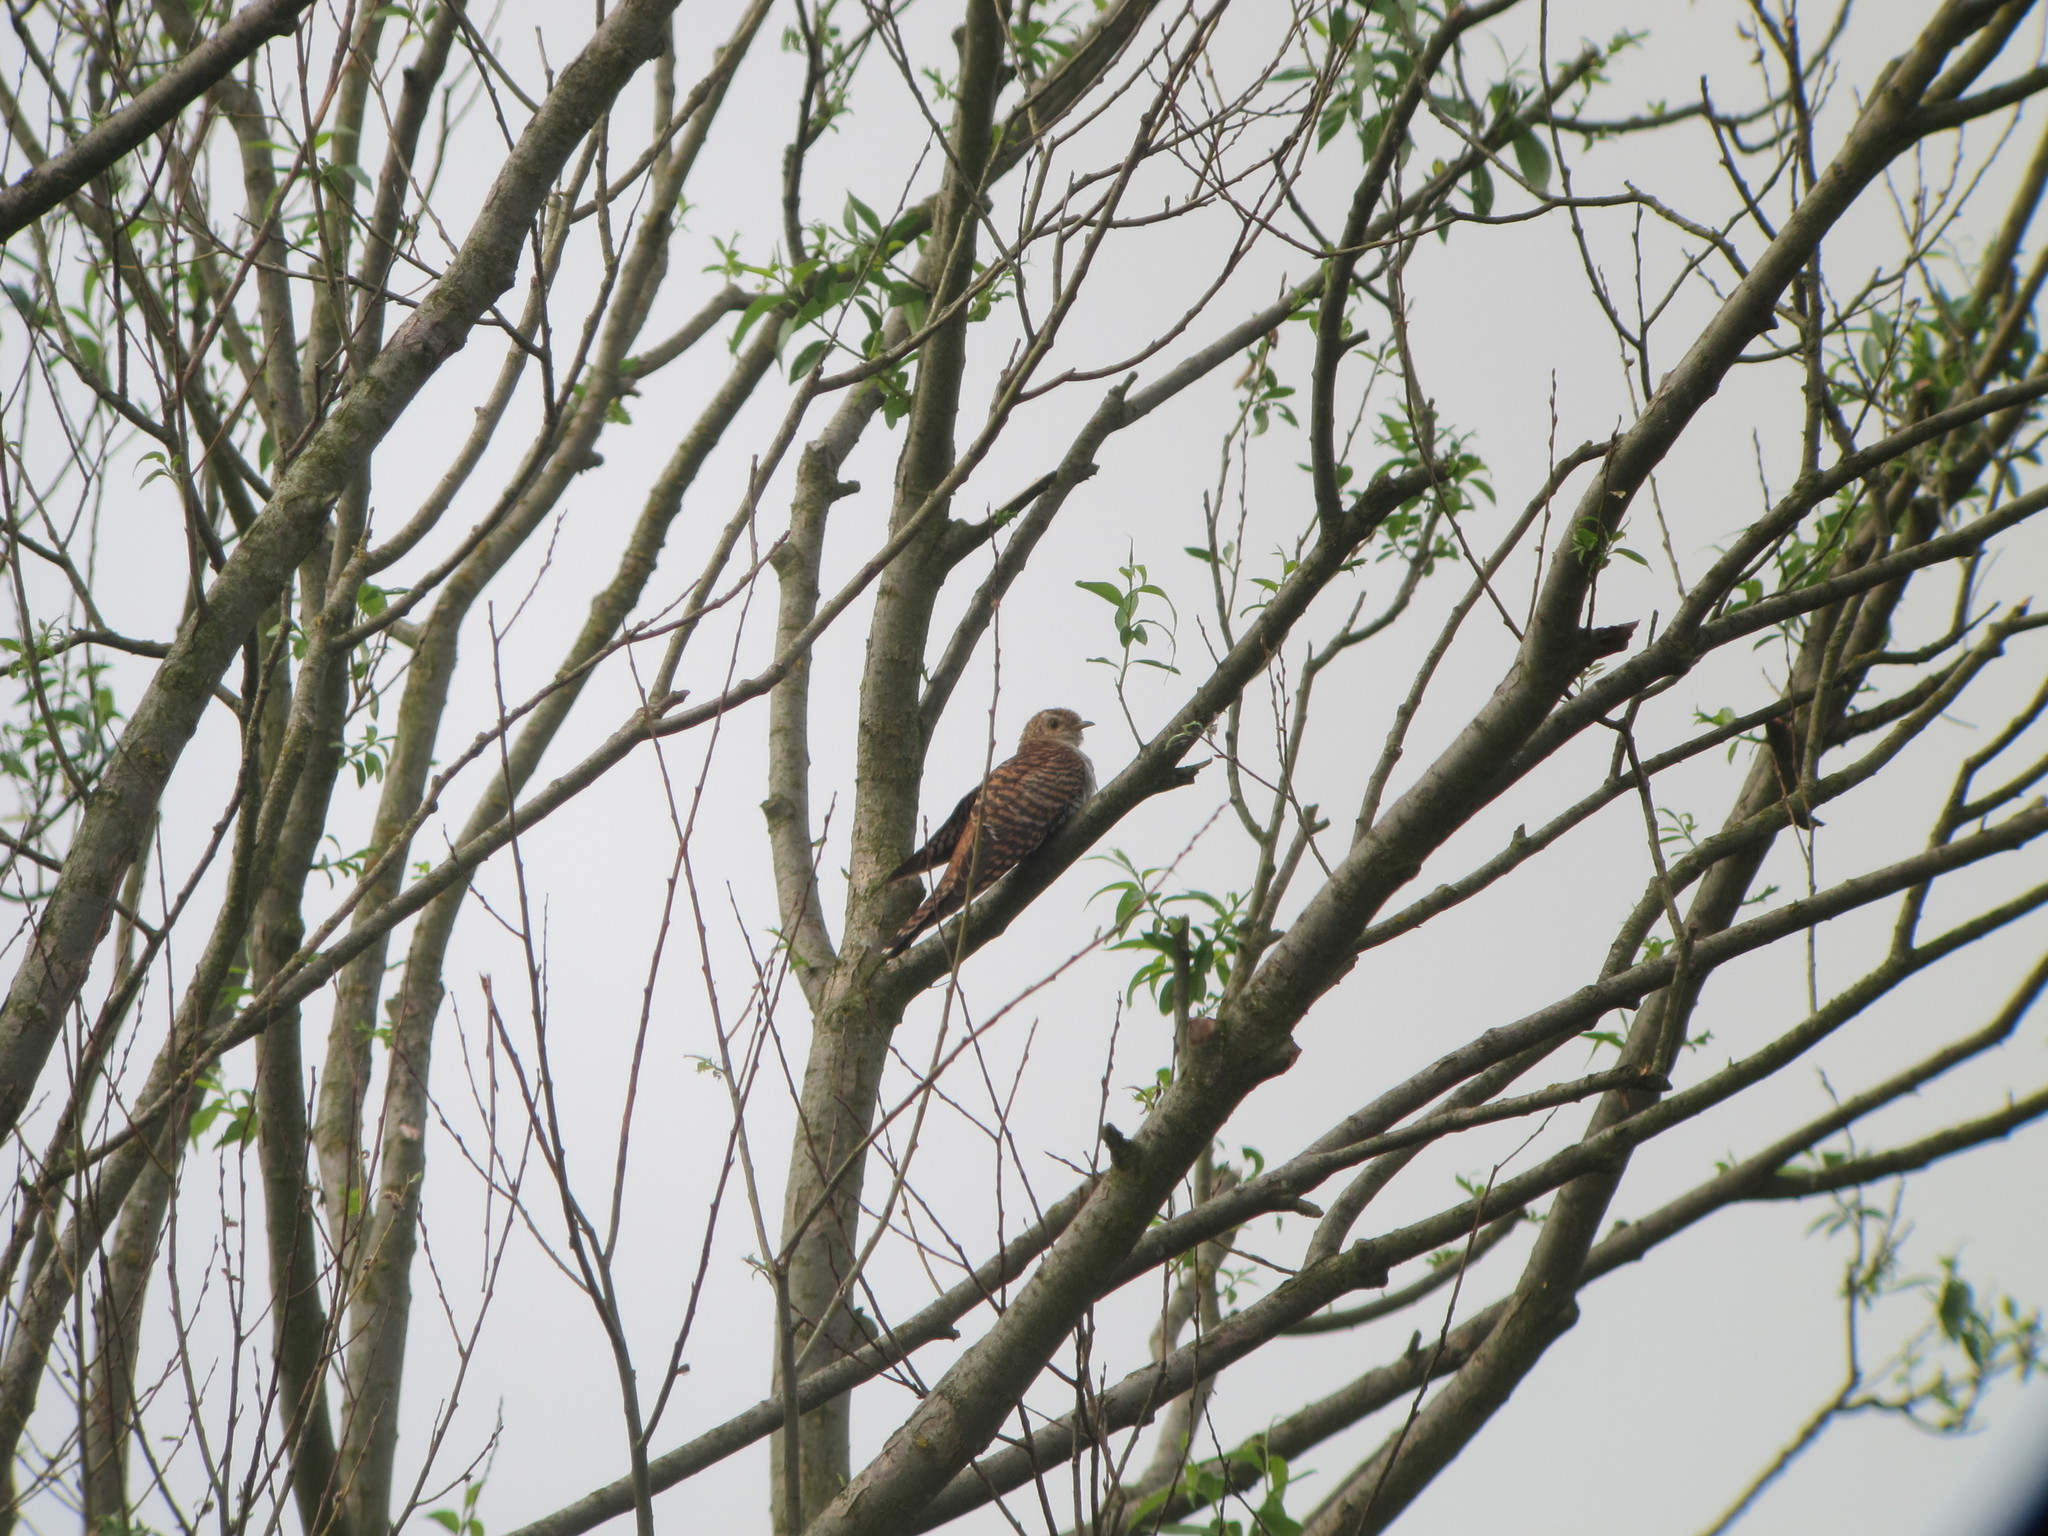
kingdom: Animalia
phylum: Chordata
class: Aves
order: Cuculiformes
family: Cuculidae
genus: Cuculus
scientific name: Cuculus canorus
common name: Common cuckoo
